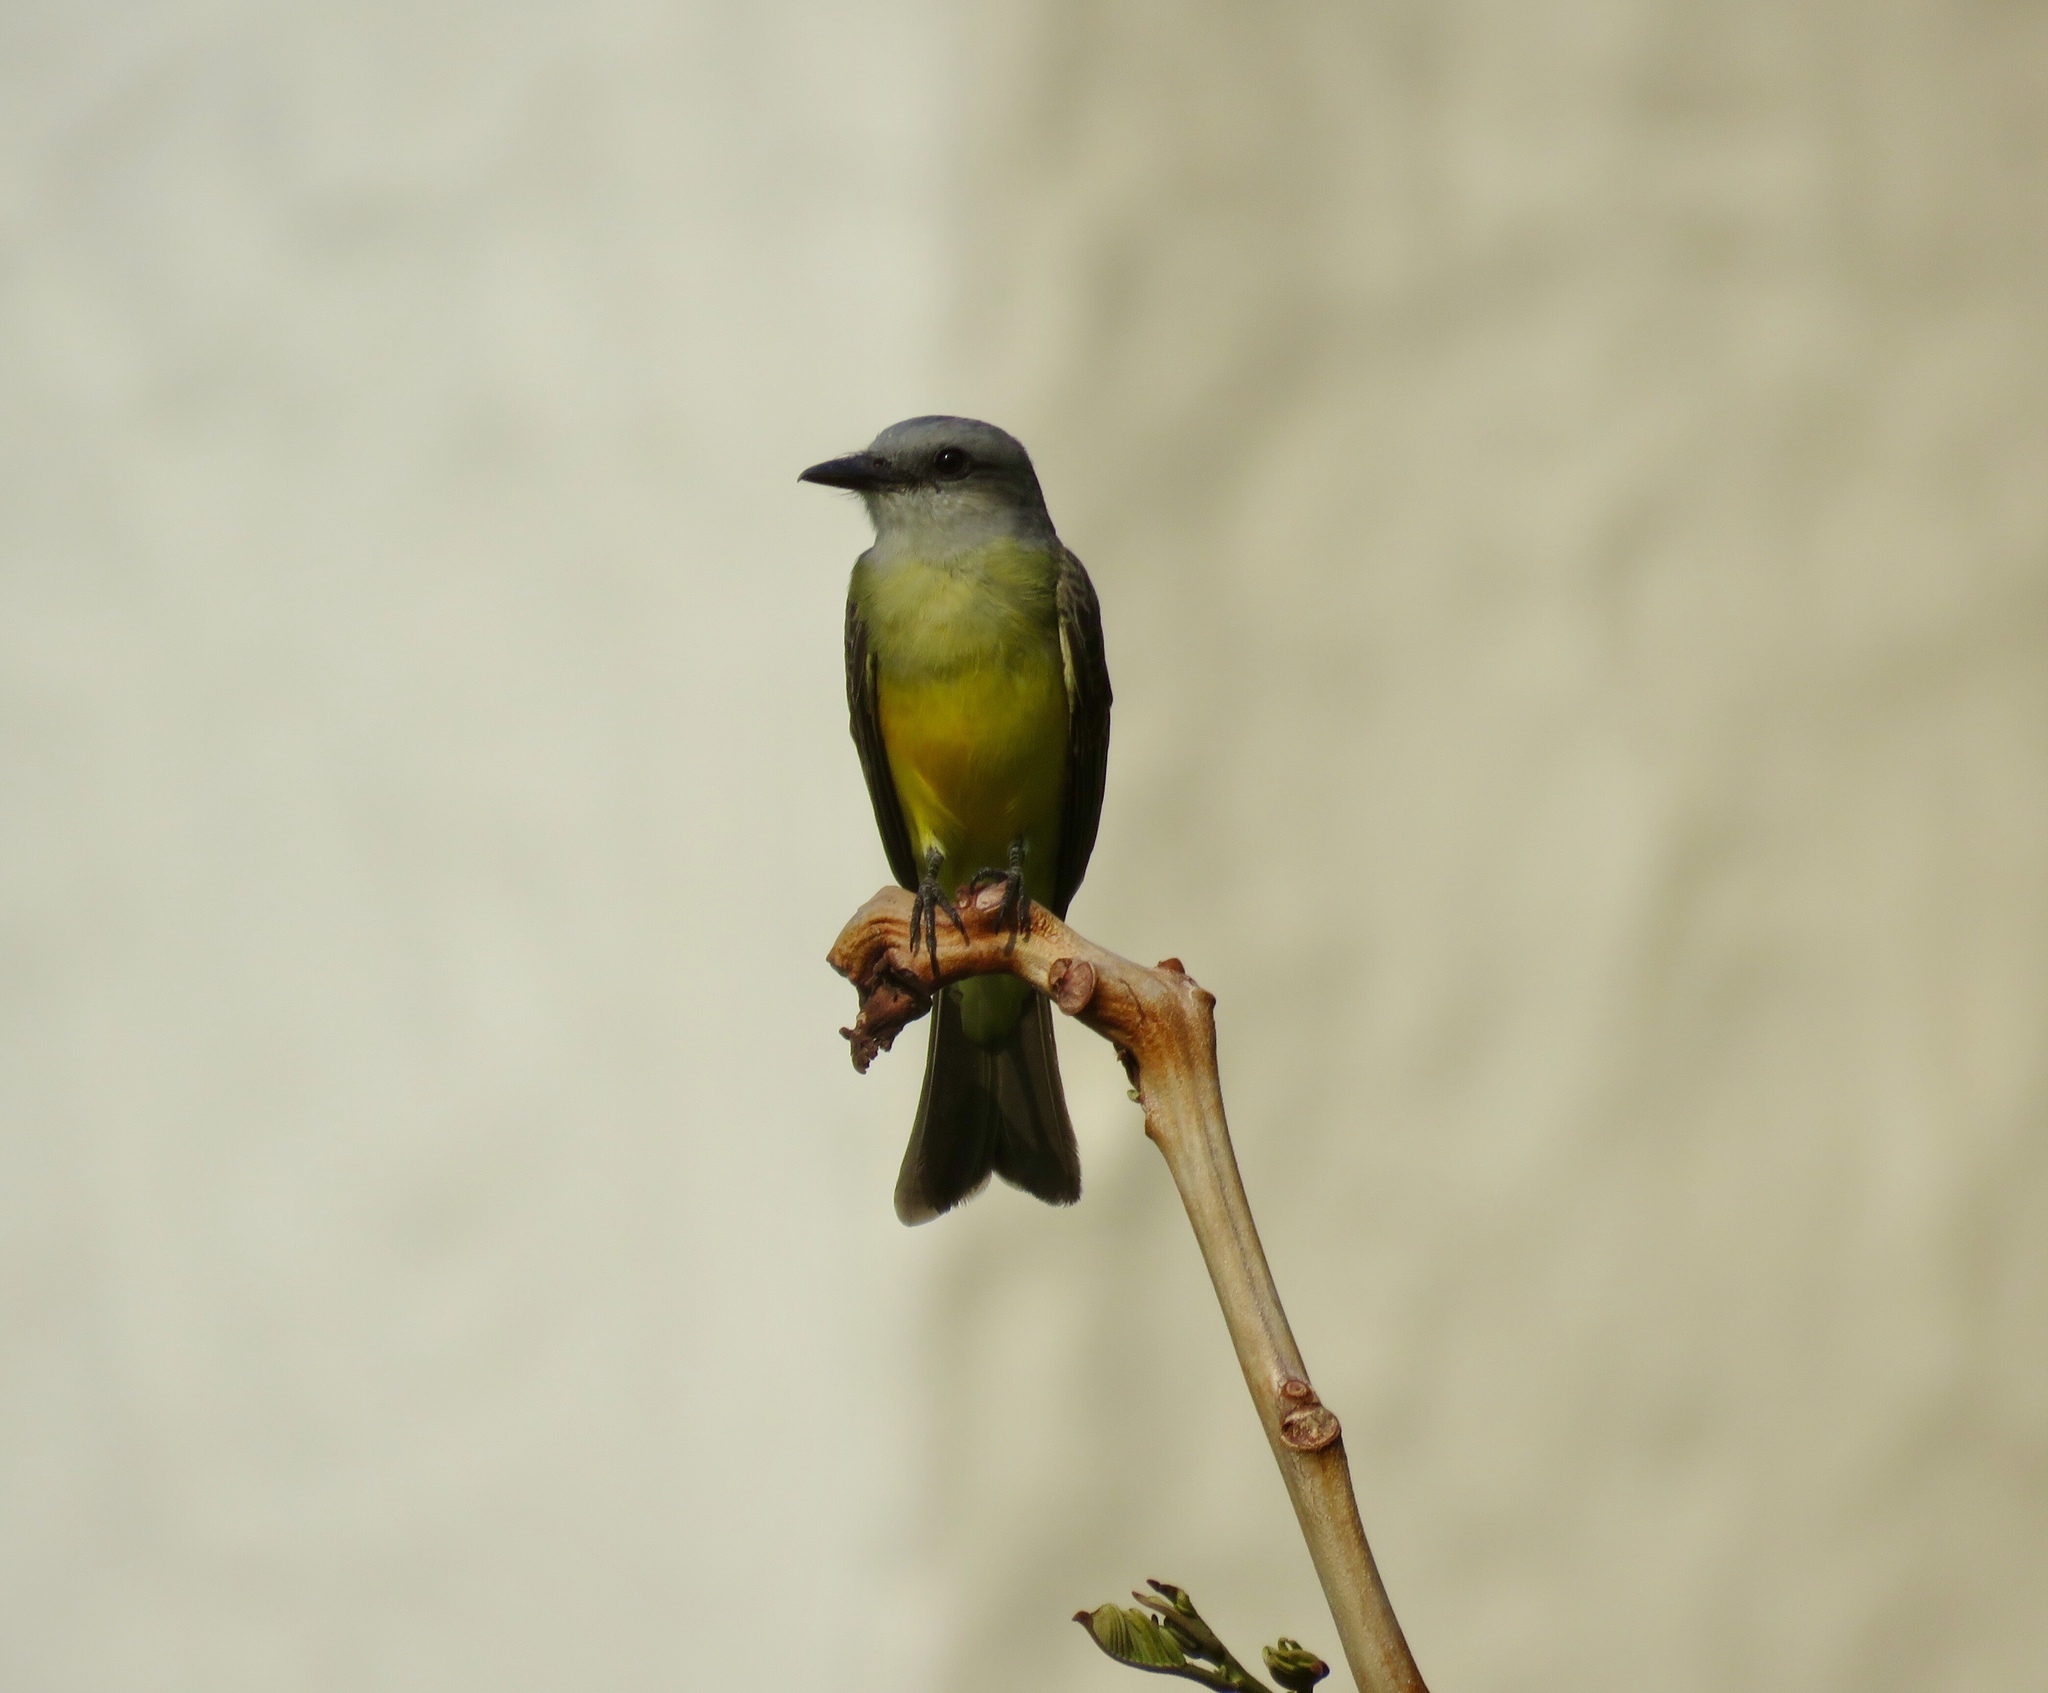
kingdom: Animalia
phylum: Chordata
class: Aves
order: Passeriformes
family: Tyrannidae
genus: Tyrannus
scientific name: Tyrannus melancholicus
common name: Tropical kingbird
